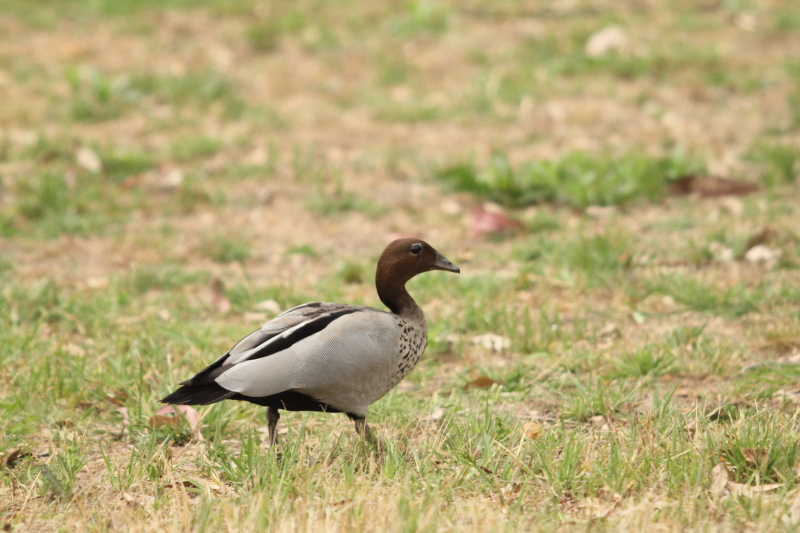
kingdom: Animalia
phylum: Chordata
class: Aves
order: Anseriformes
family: Anatidae
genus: Chenonetta
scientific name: Chenonetta jubata
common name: Maned duck
